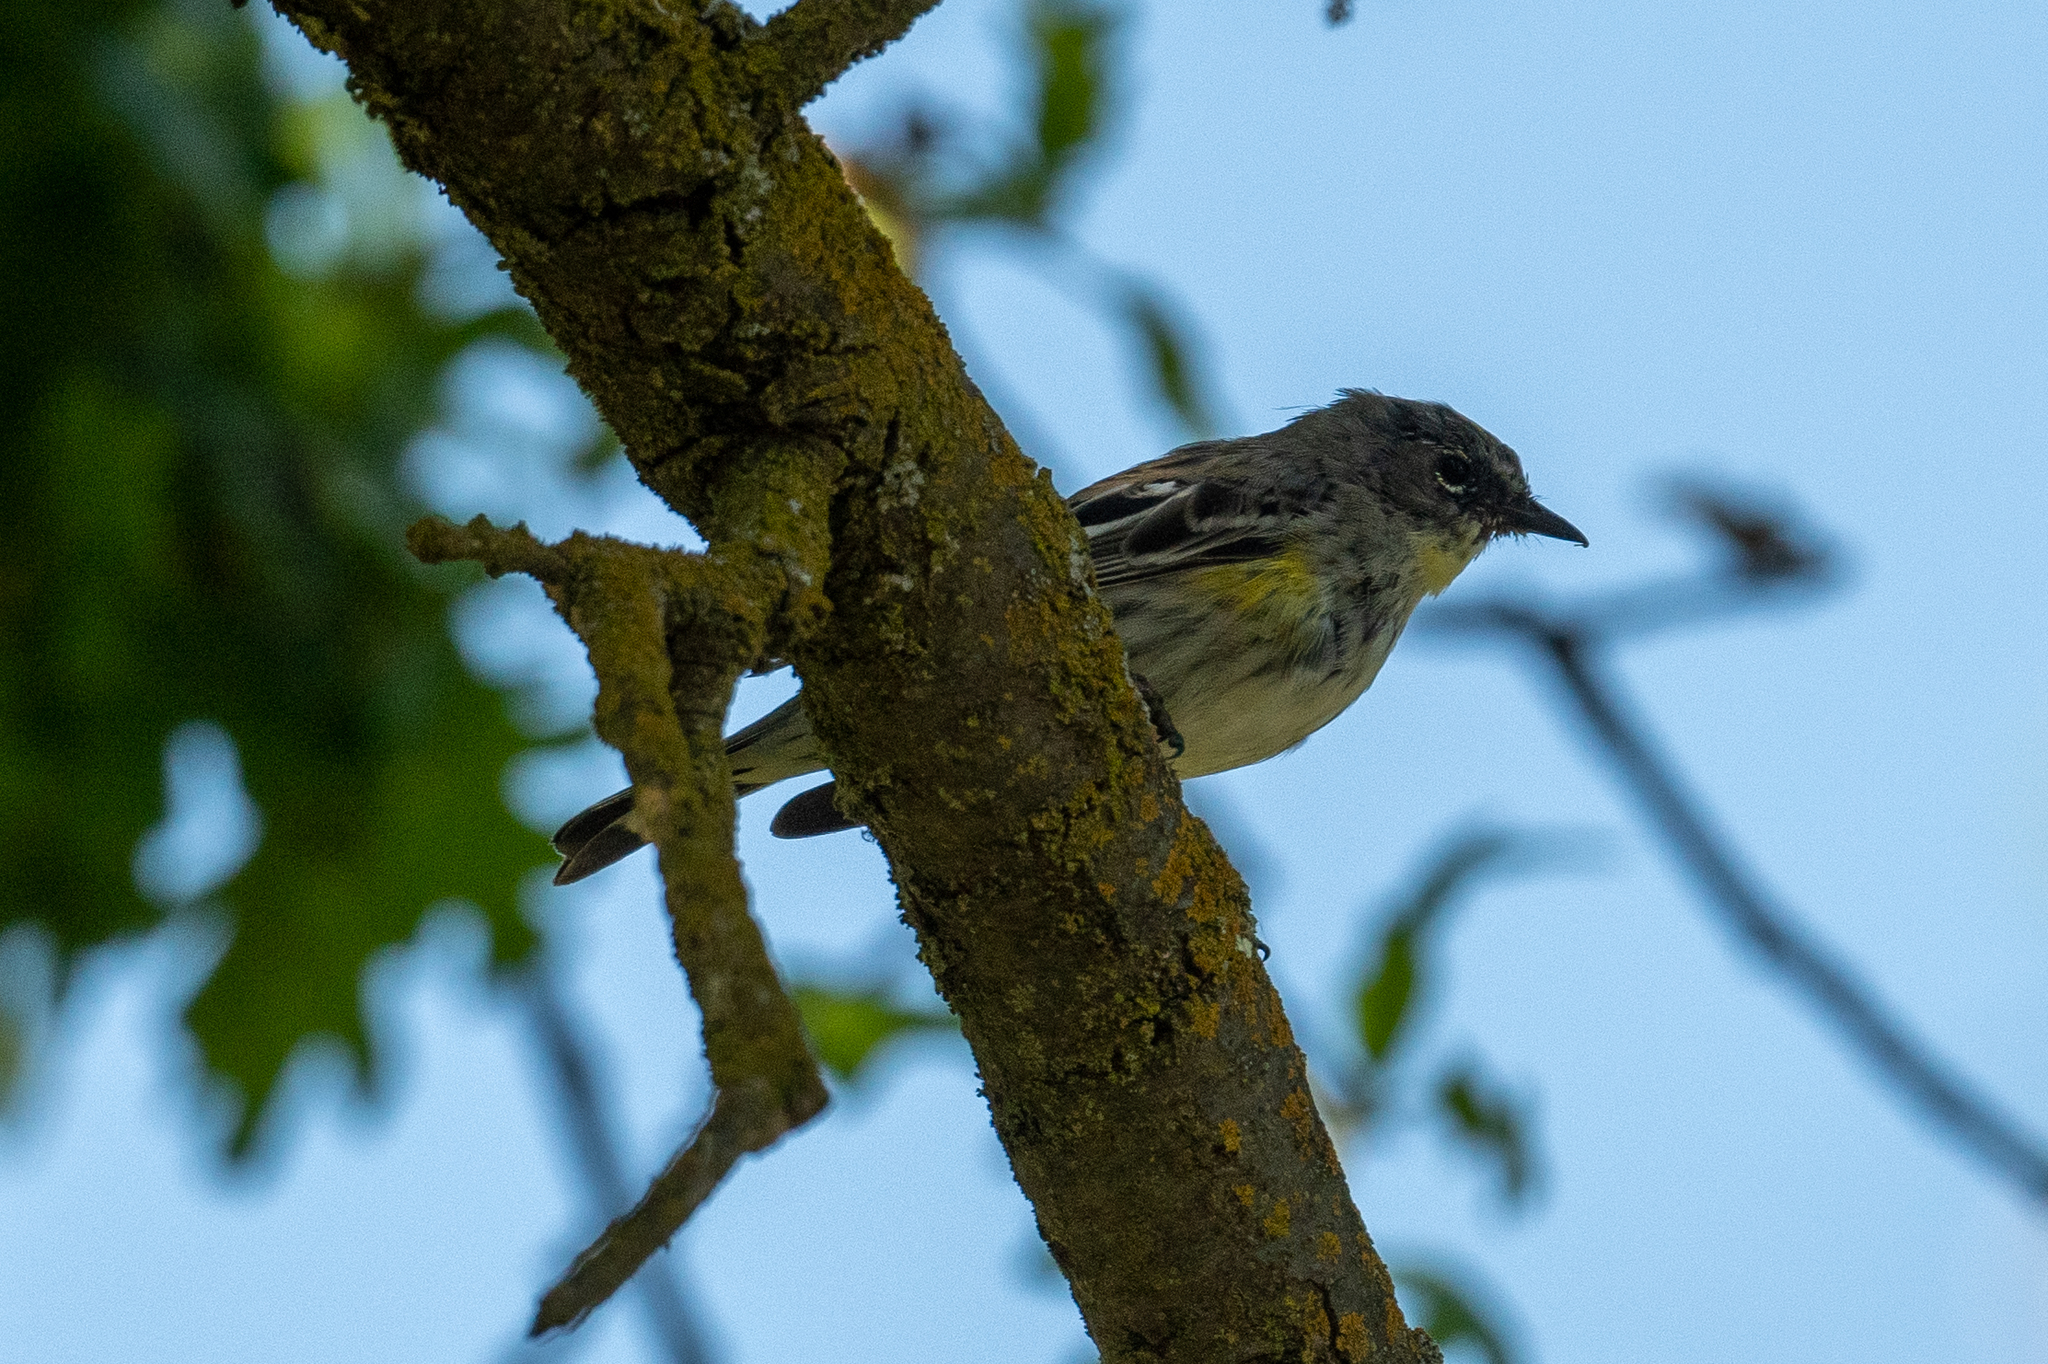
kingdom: Animalia
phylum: Chordata
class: Aves
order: Passeriformes
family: Parulidae
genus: Setophaga
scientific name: Setophaga coronata
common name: Myrtle warbler
